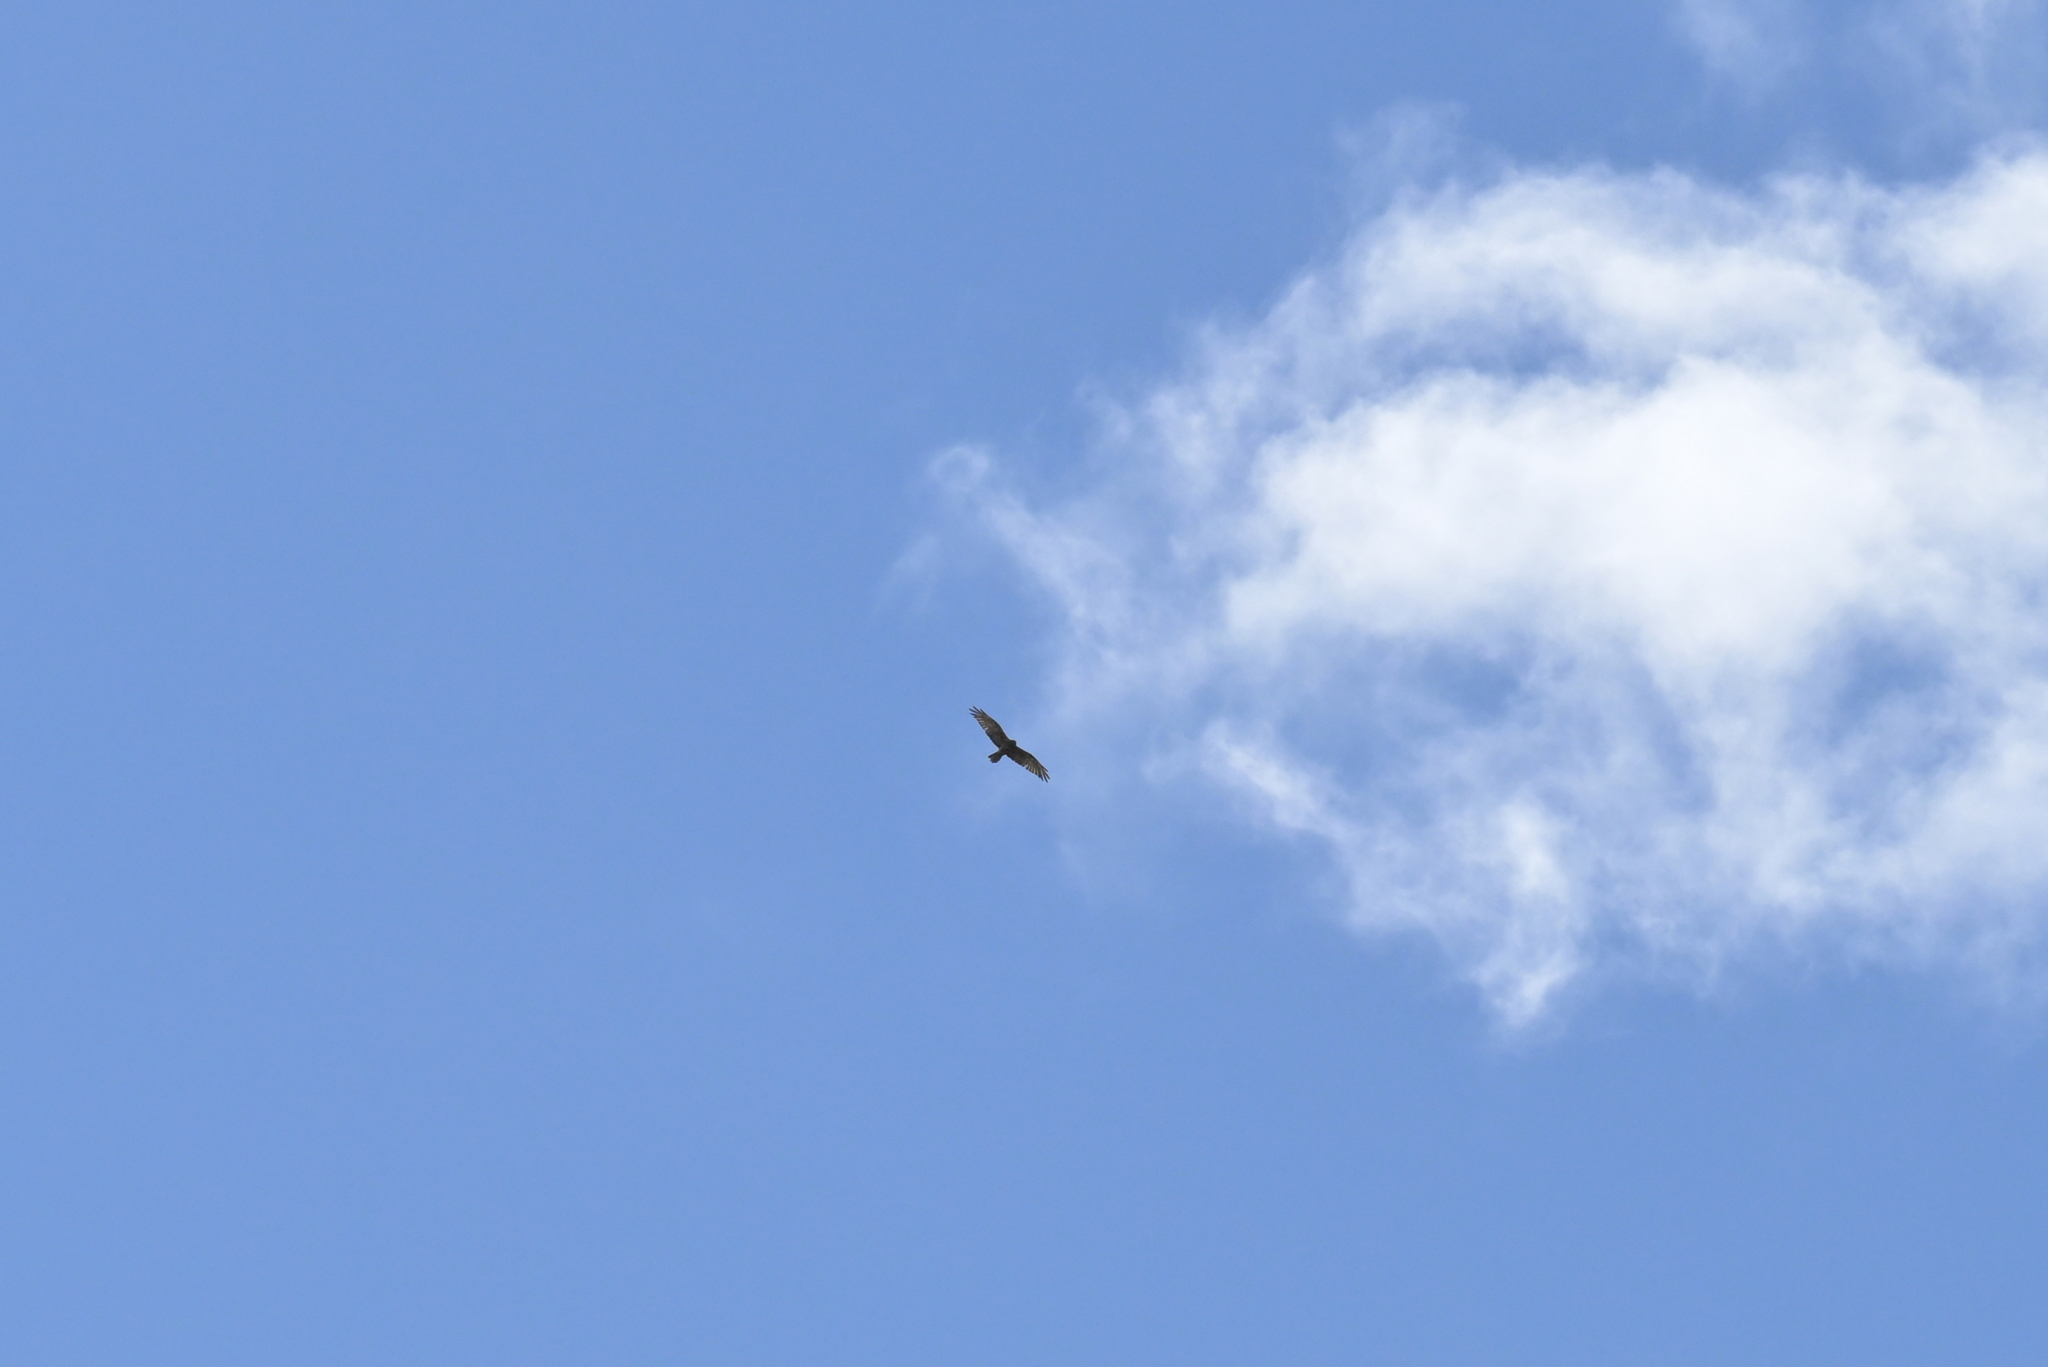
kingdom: Animalia
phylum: Chordata
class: Aves
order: Accipitriformes
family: Accipitridae
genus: Circus
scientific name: Circus approximans
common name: Swamp harrier
